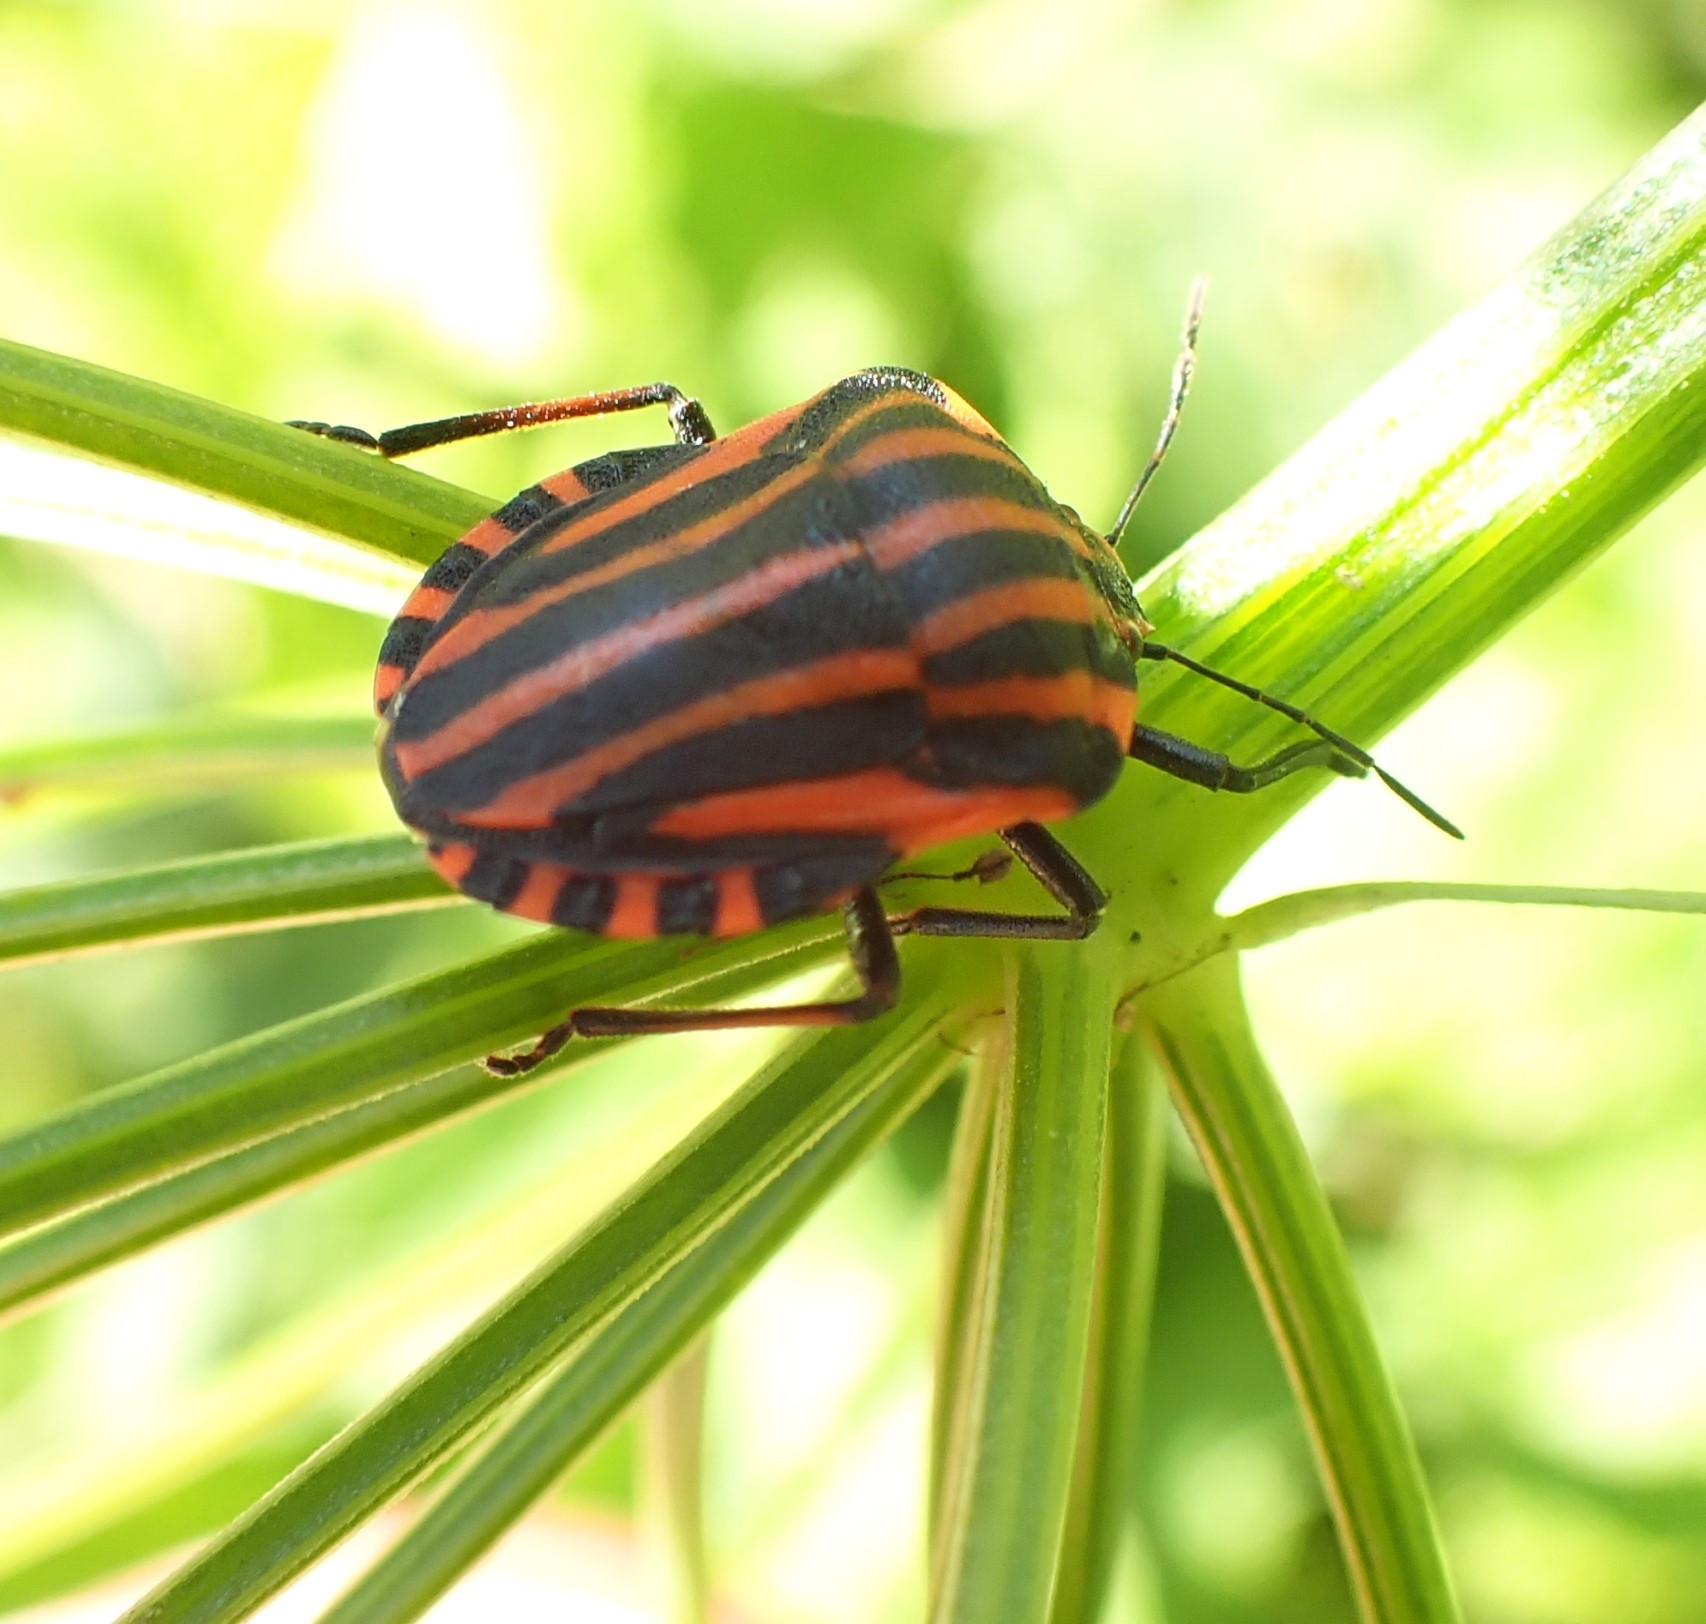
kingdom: Animalia
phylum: Arthropoda
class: Insecta
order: Hemiptera
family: Pentatomidae
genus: Graphosoma
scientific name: Graphosoma italicum
